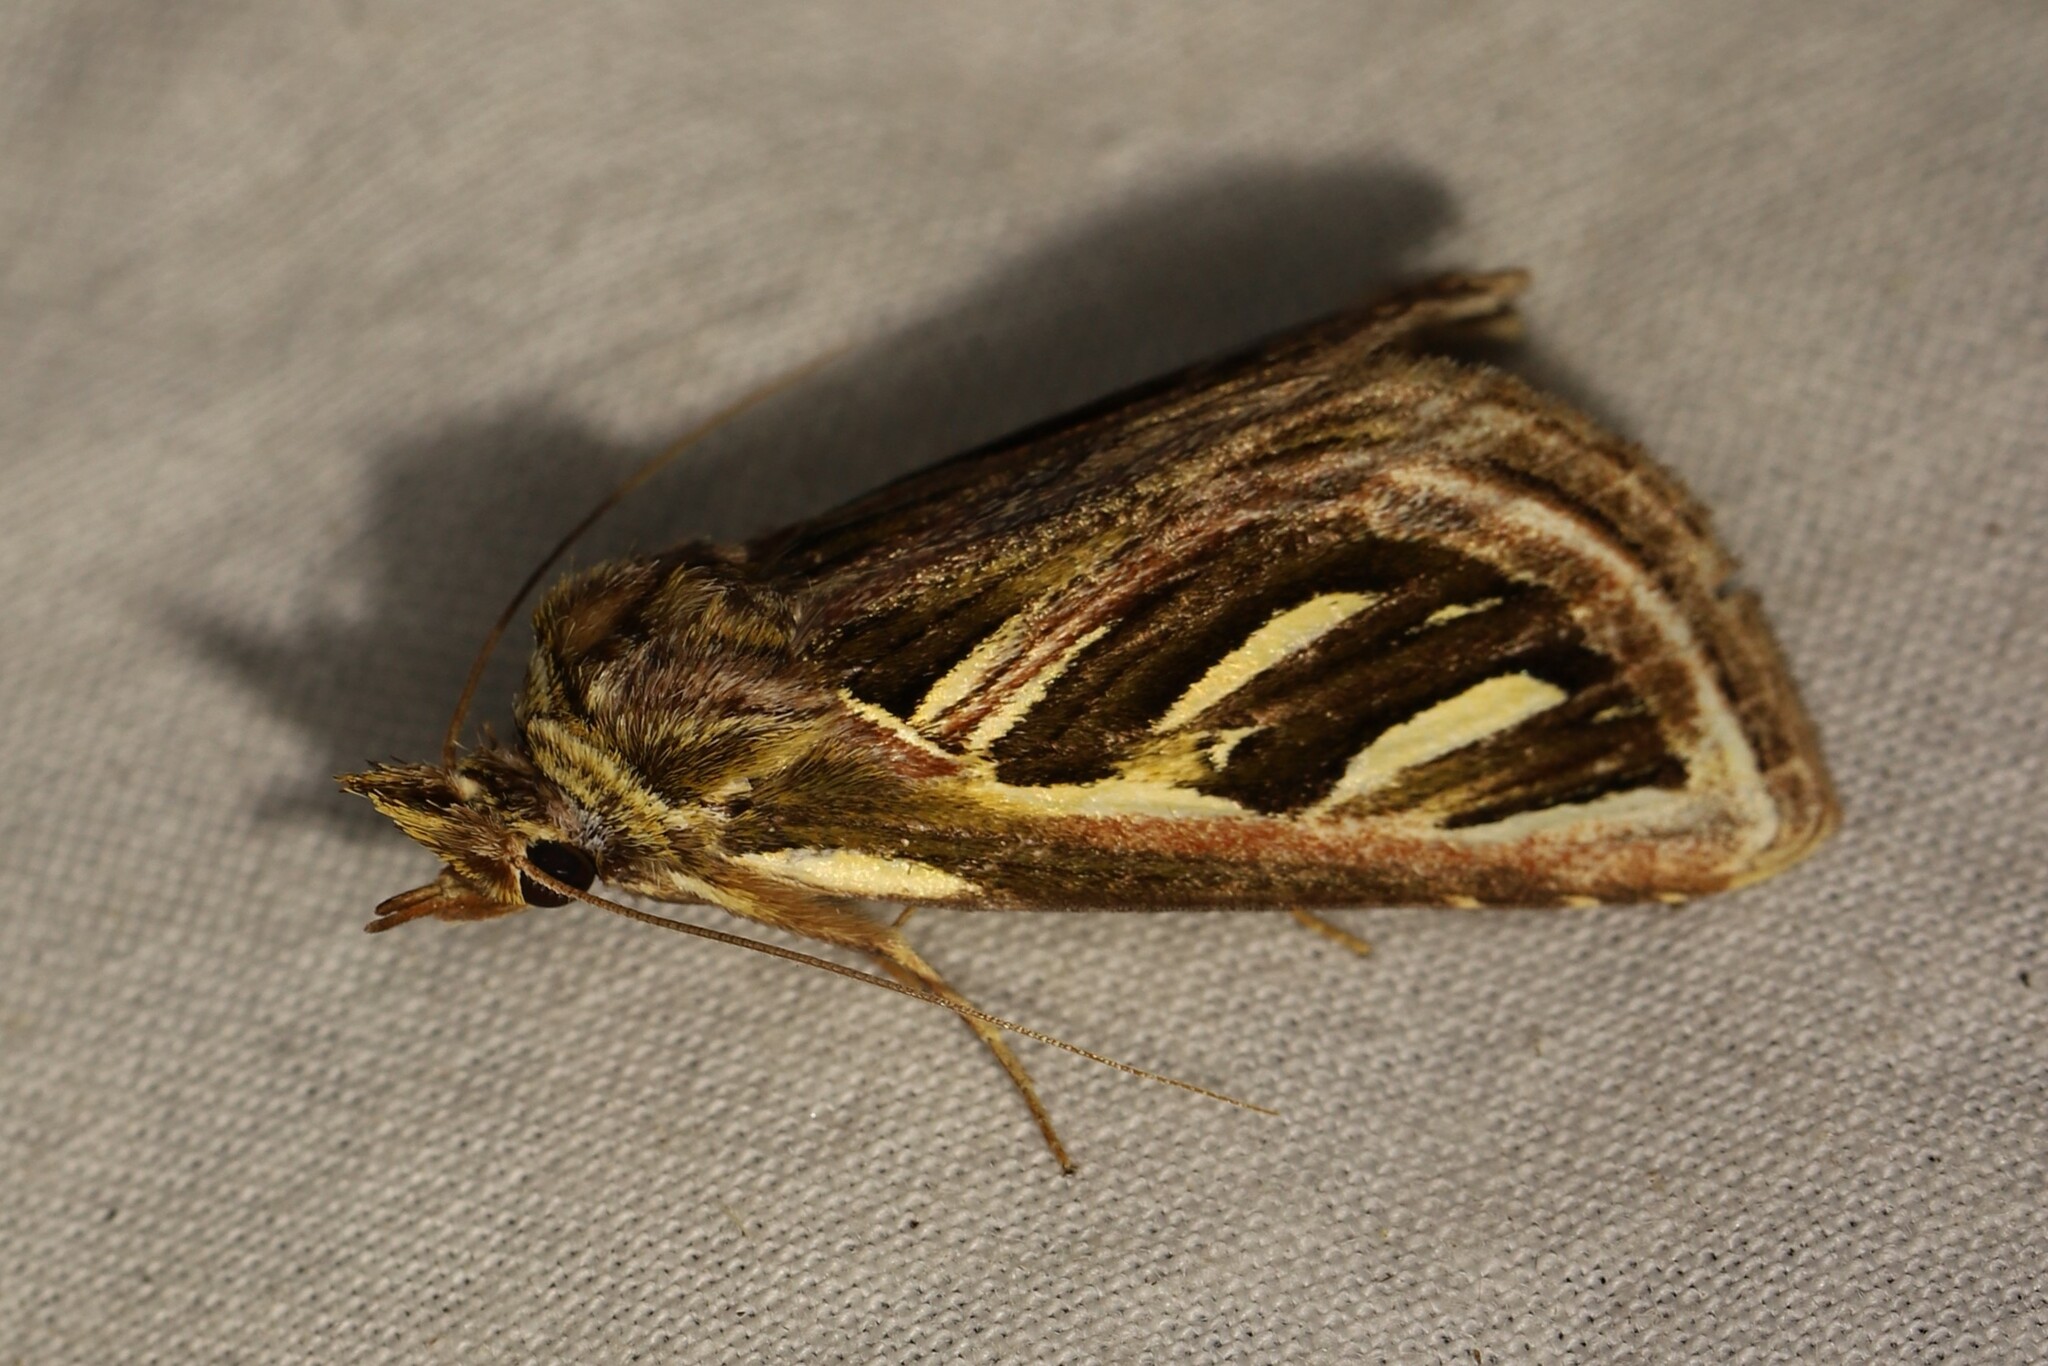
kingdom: Animalia
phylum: Arthropoda
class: Insecta
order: Lepidoptera
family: Notodontidae
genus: Ankale
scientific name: Ankale
